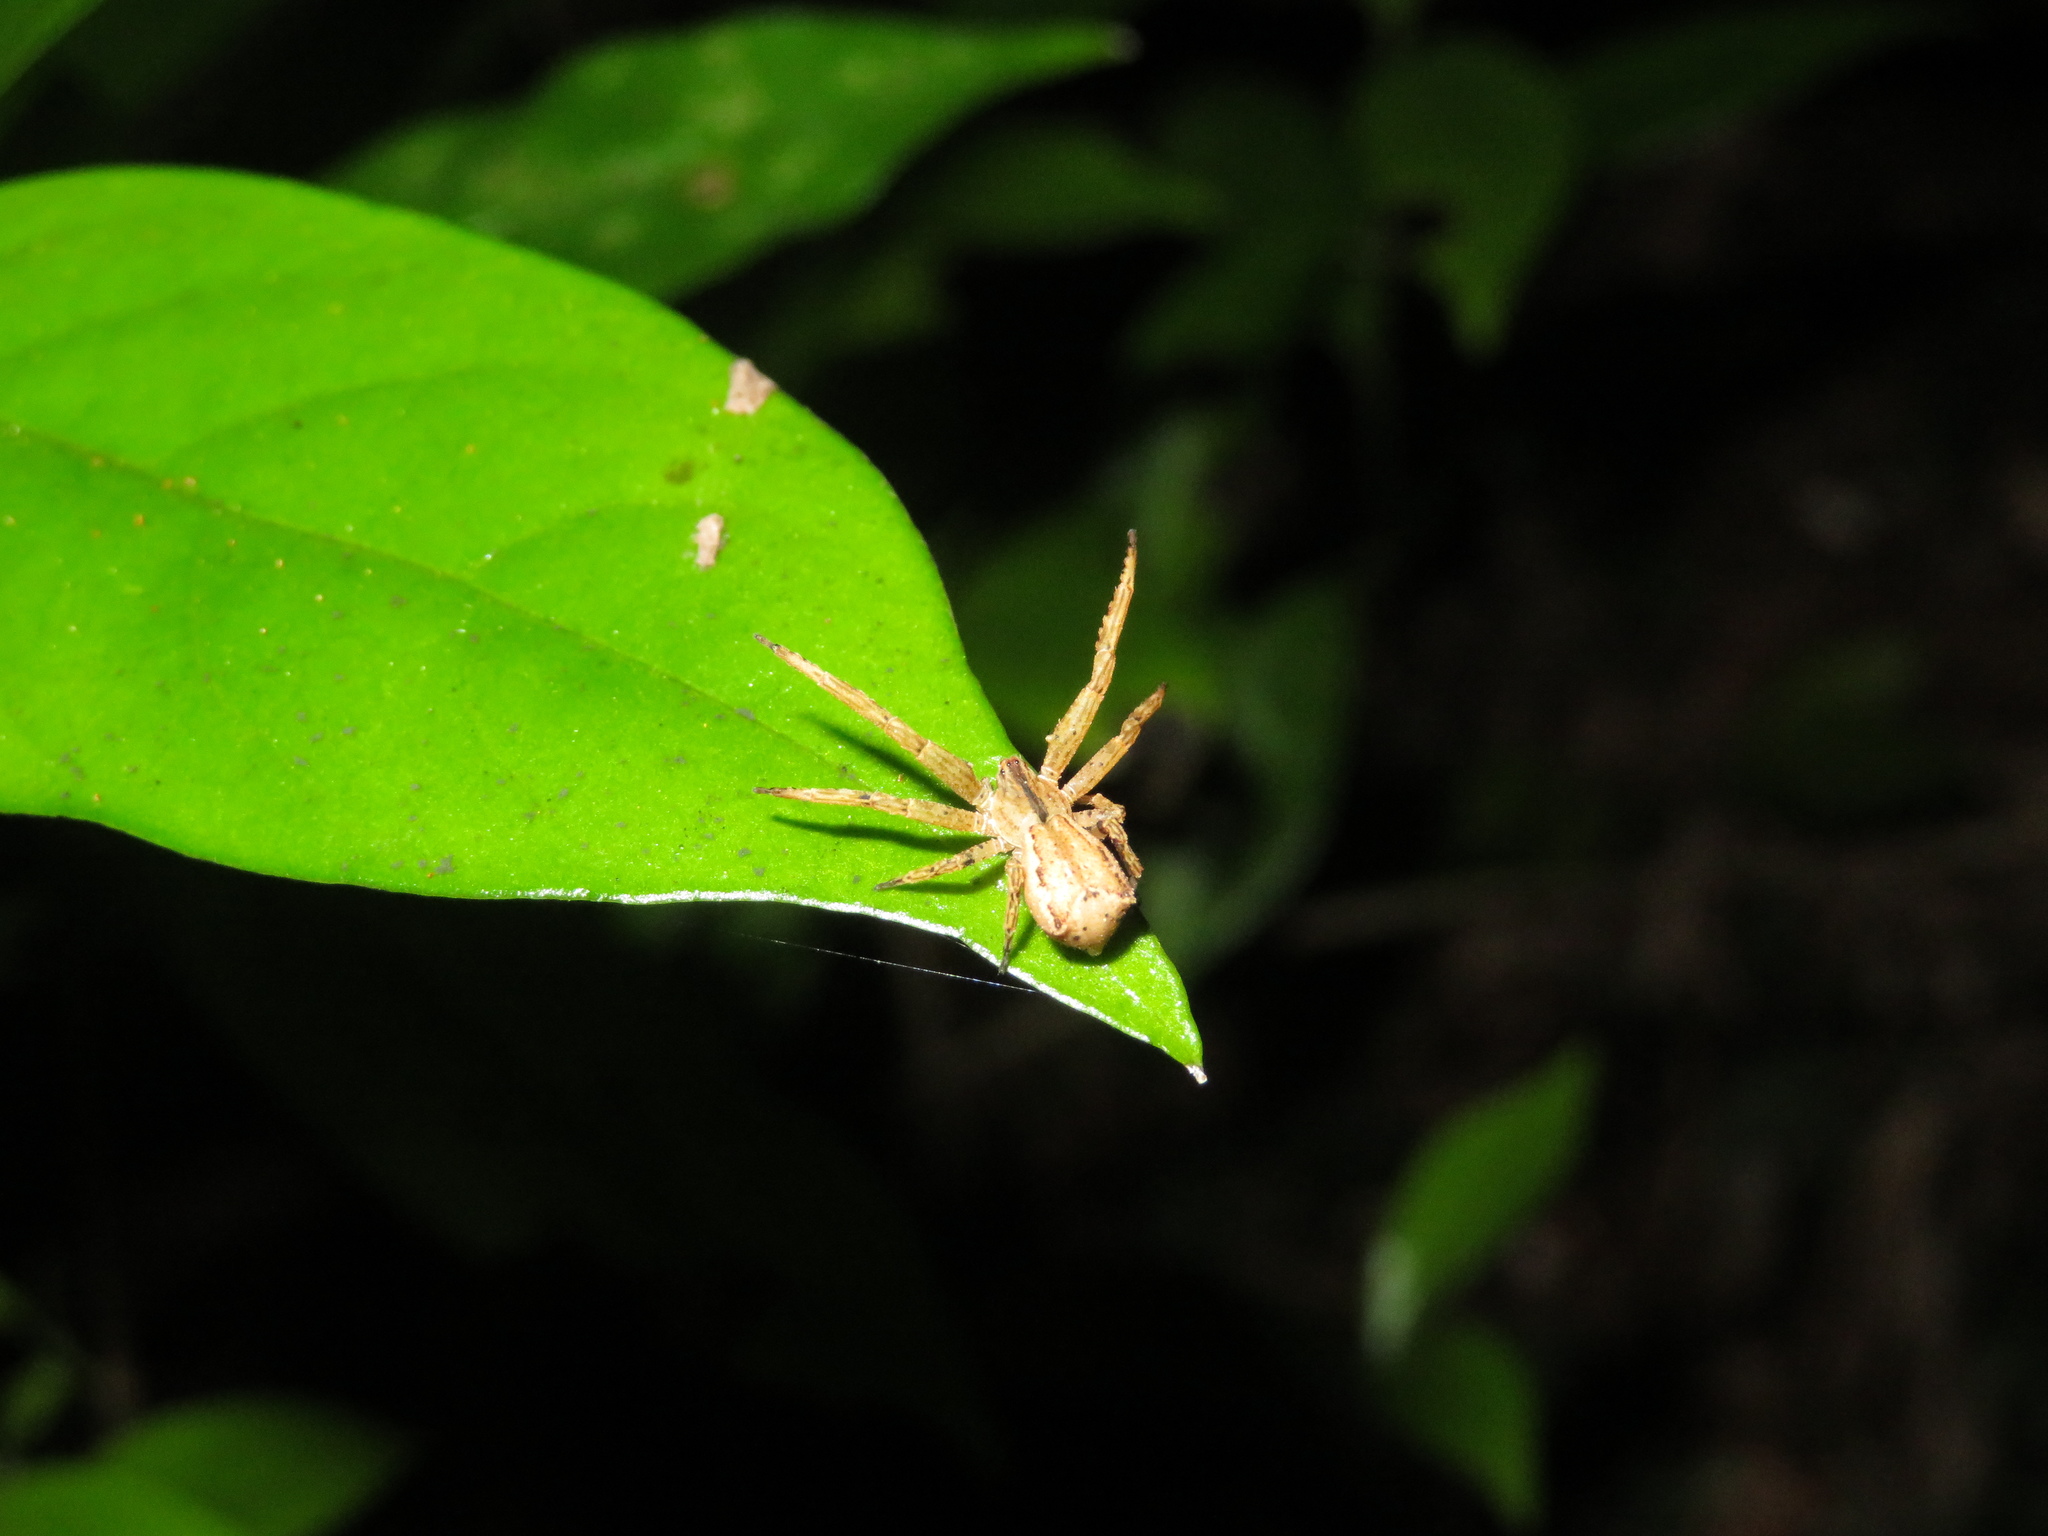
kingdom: Animalia
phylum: Arthropoda
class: Arachnida
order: Araneae
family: Thomisidae
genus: Sidymella
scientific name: Sidymella angulata
